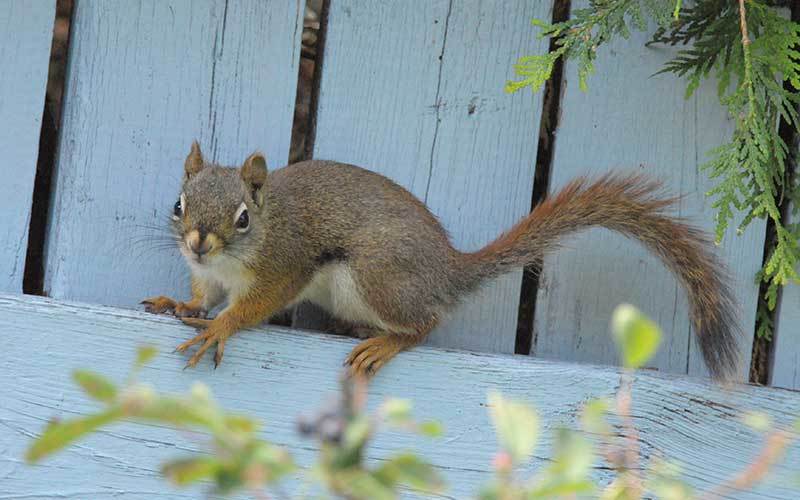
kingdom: Animalia
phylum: Chordata
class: Mammalia
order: Rodentia
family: Sciuridae
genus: Tamiasciurus
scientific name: Tamiasciurus hudsonicus
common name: Red squirrel
